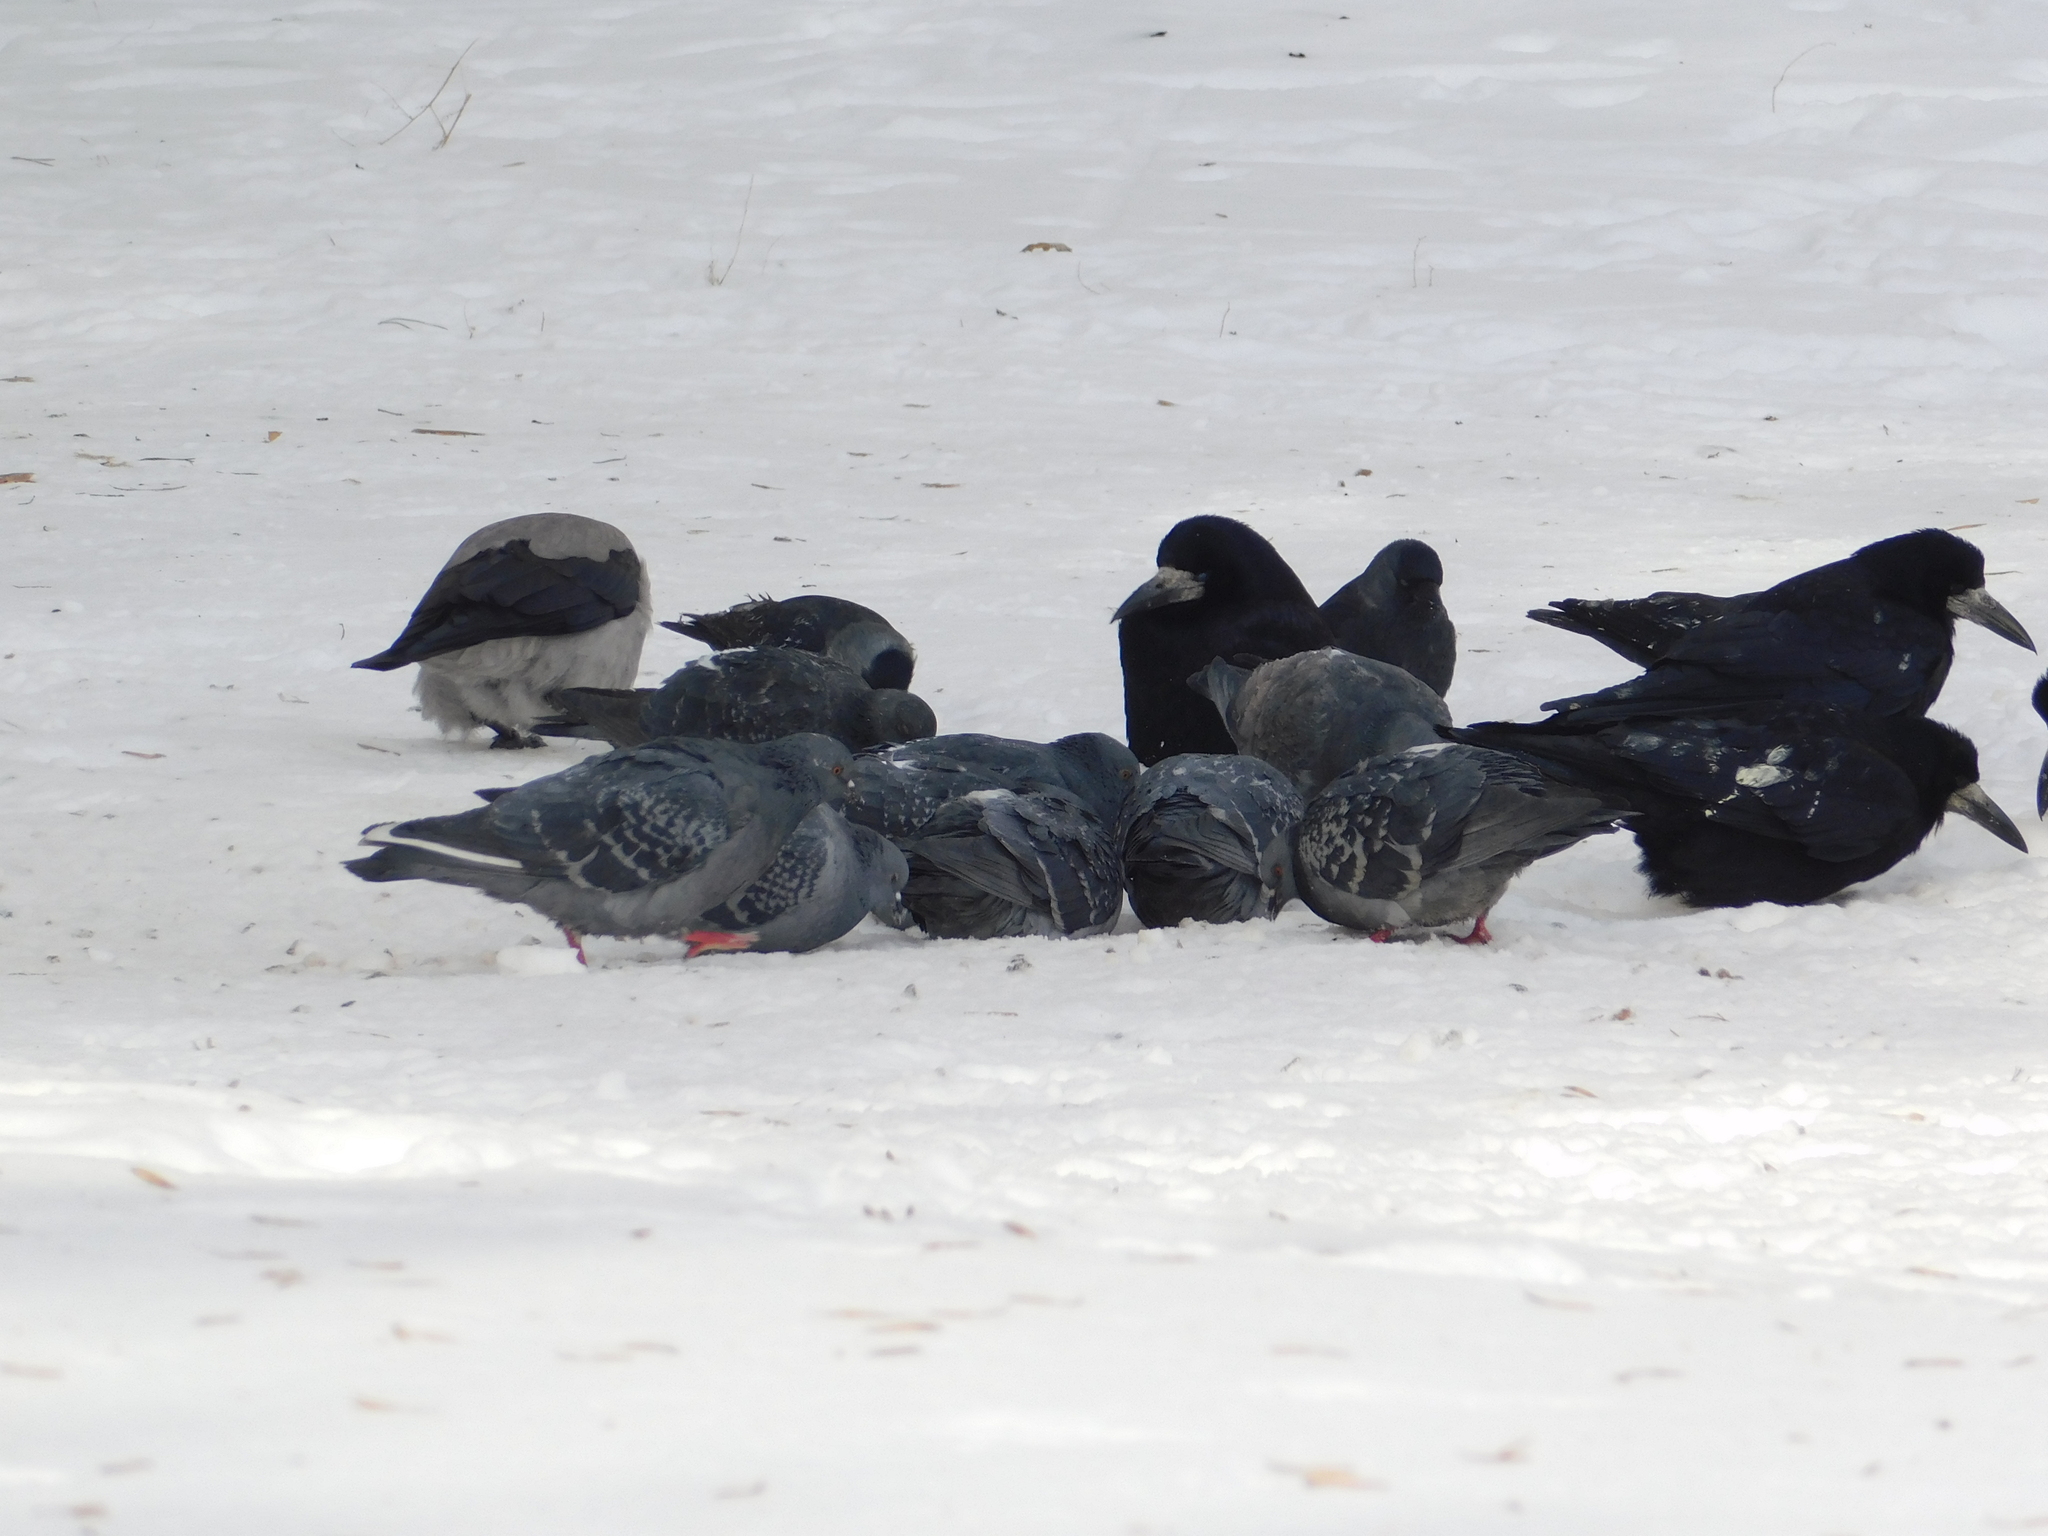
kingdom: Animalia
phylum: Chordata
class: Aves
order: Columbiformes
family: Columbidae
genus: Columba
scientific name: Columba livia
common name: Rock pigeon
